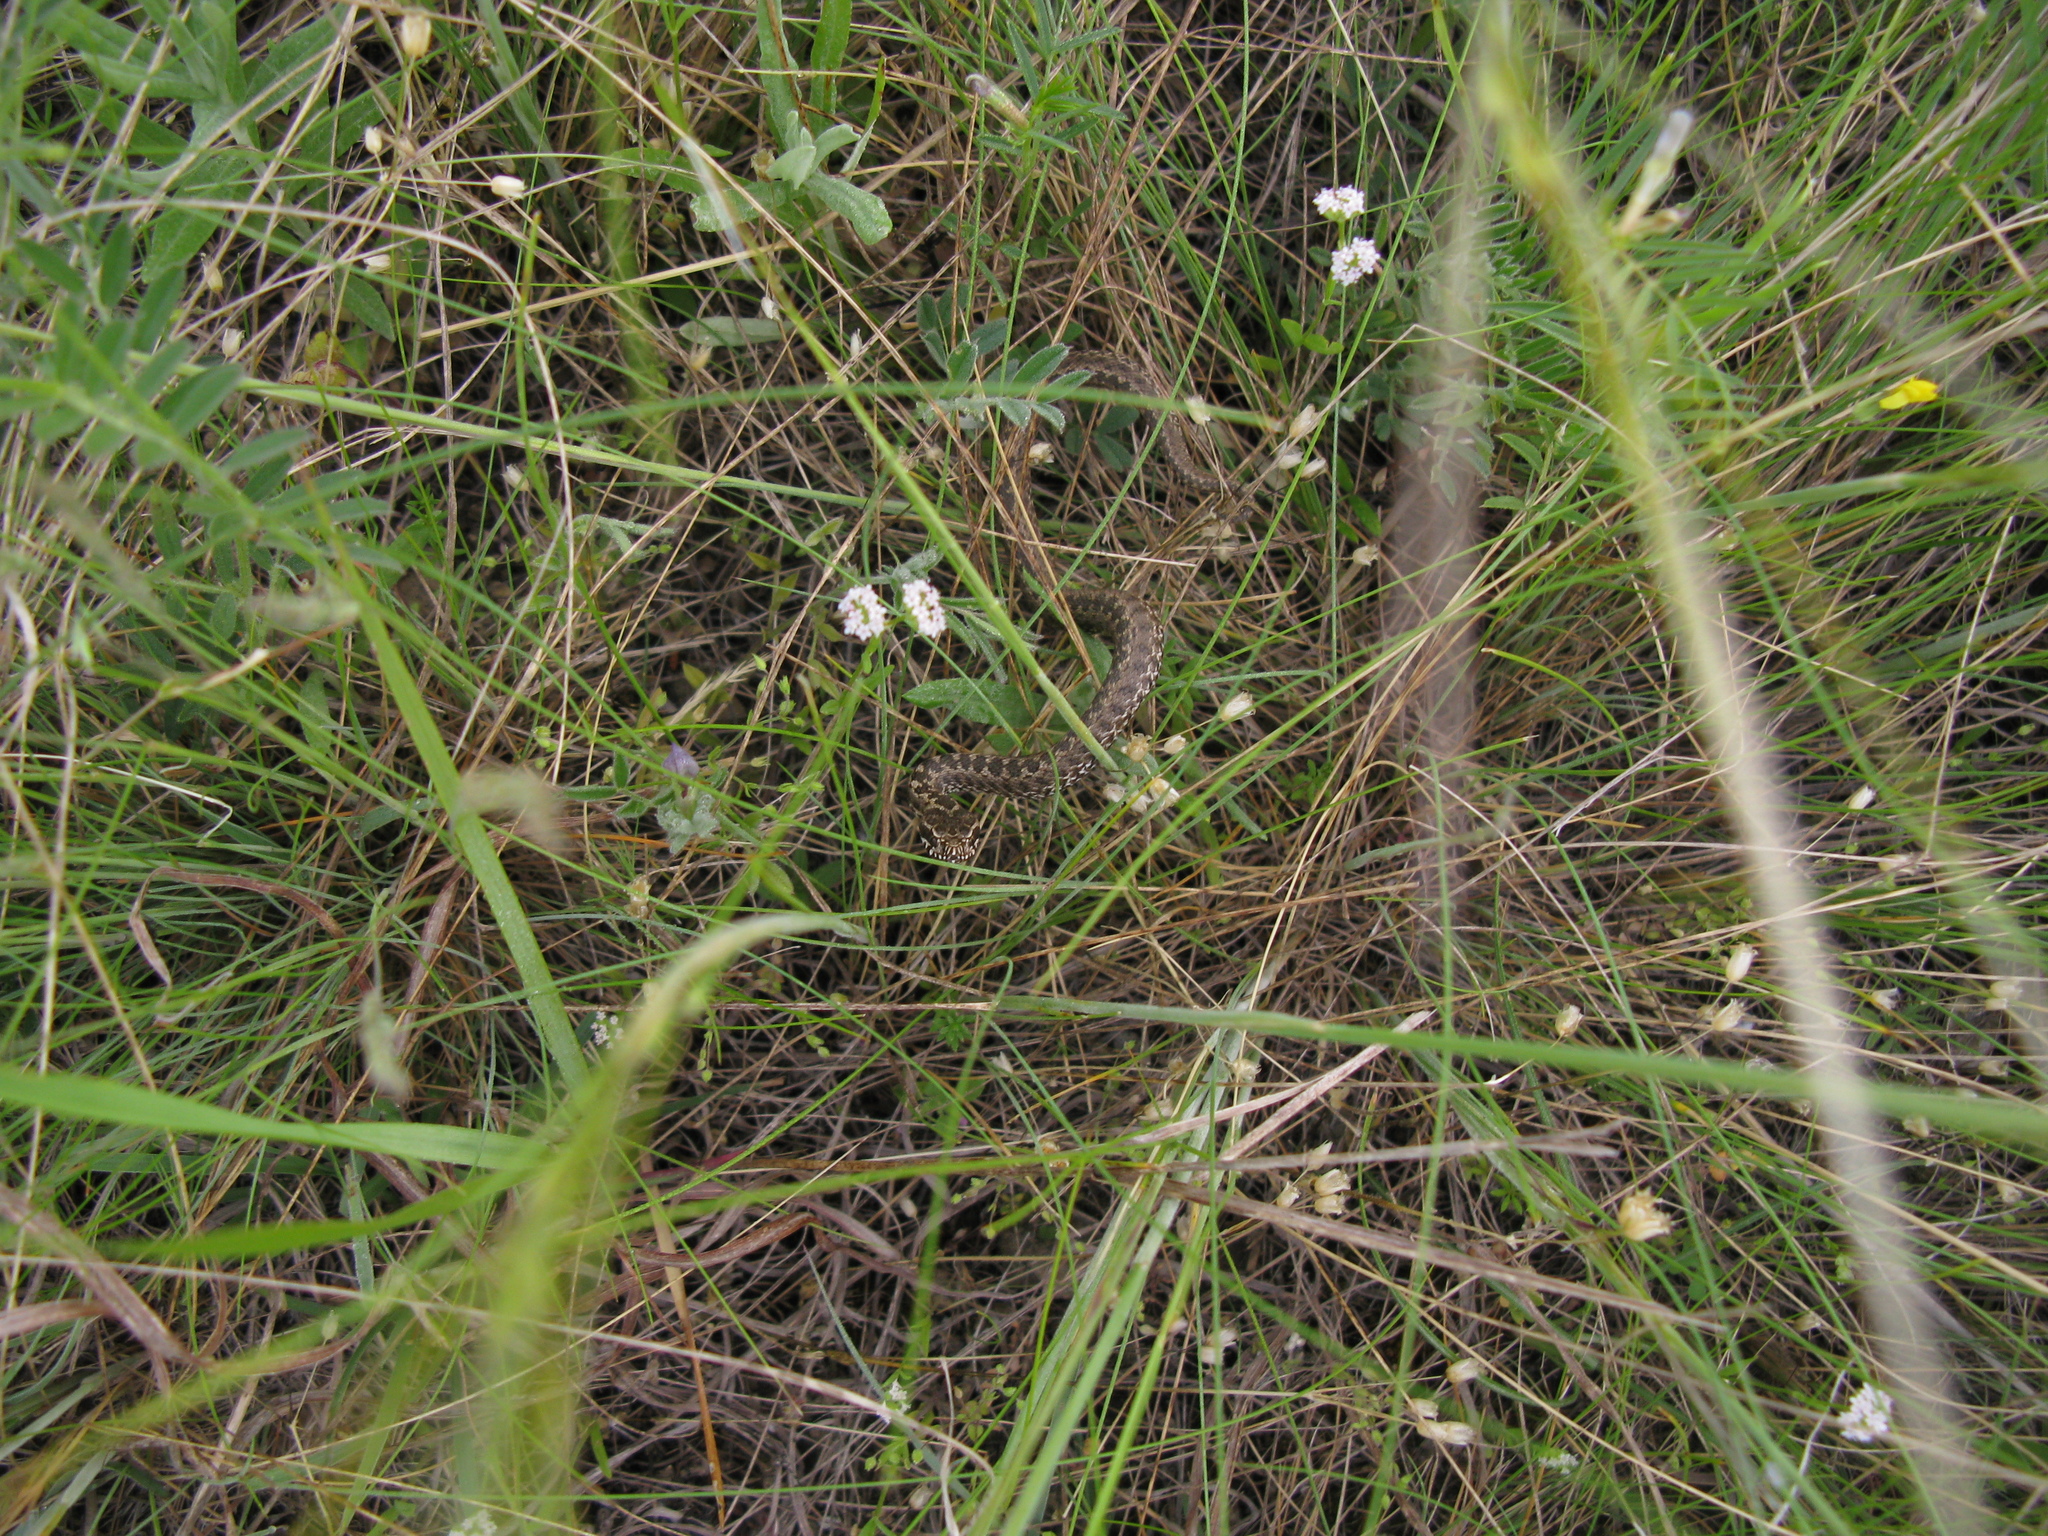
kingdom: Animalia
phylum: Chordata
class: Squamata
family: Viperidae
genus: Vipera
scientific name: Vipera renardi
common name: Eastern steppe viper
